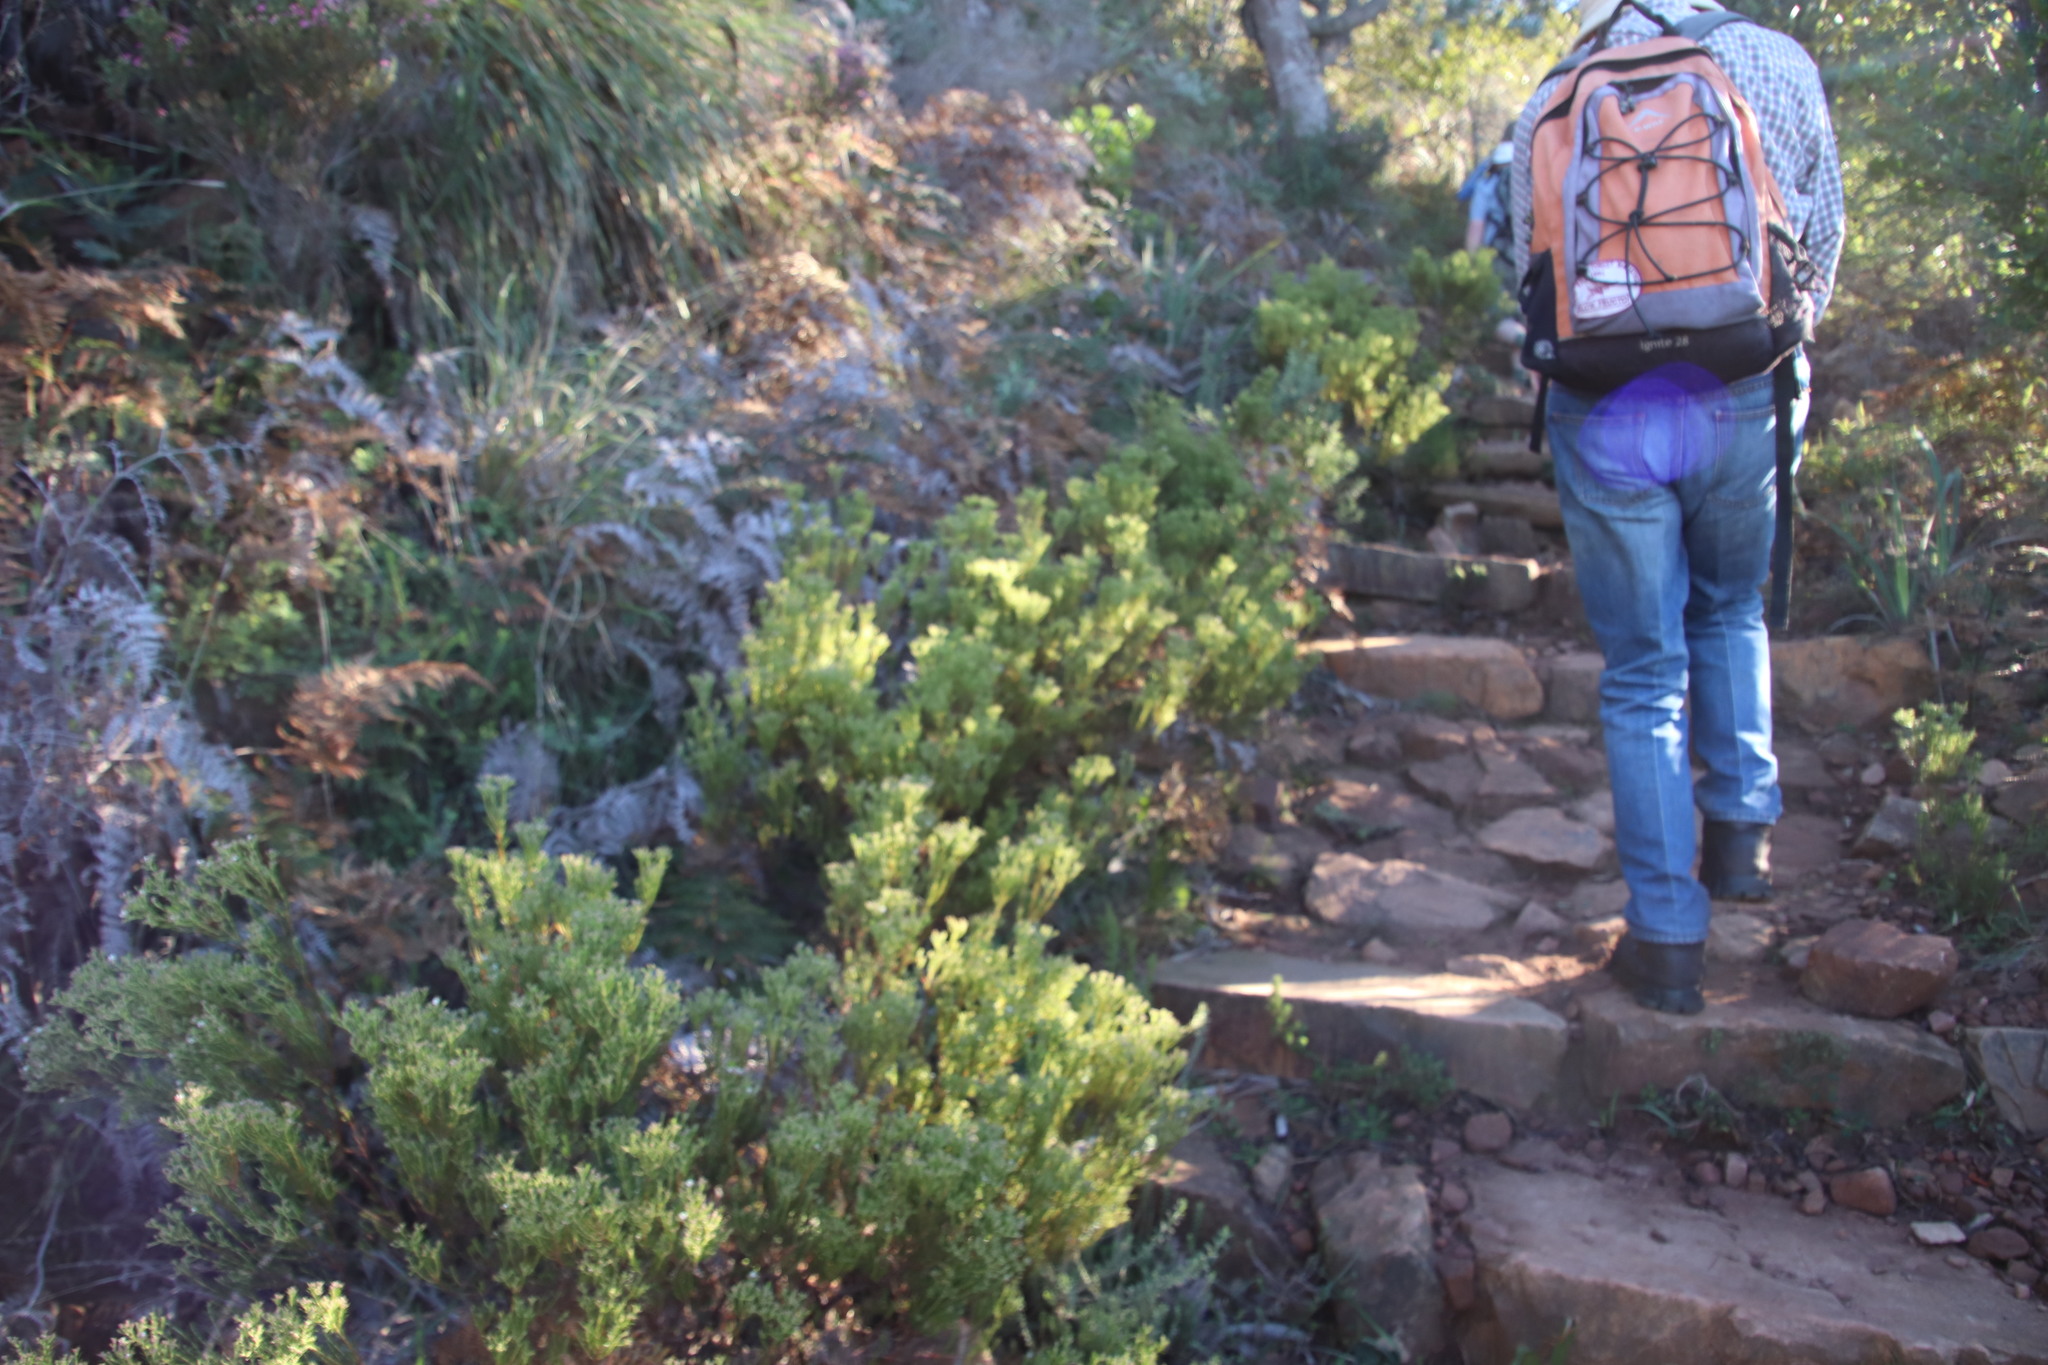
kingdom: Plantae
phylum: Tracheophyta
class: Magnoliopsida
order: Sapindales
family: Rutaceae
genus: Diosma
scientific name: Diosma hirsuta
